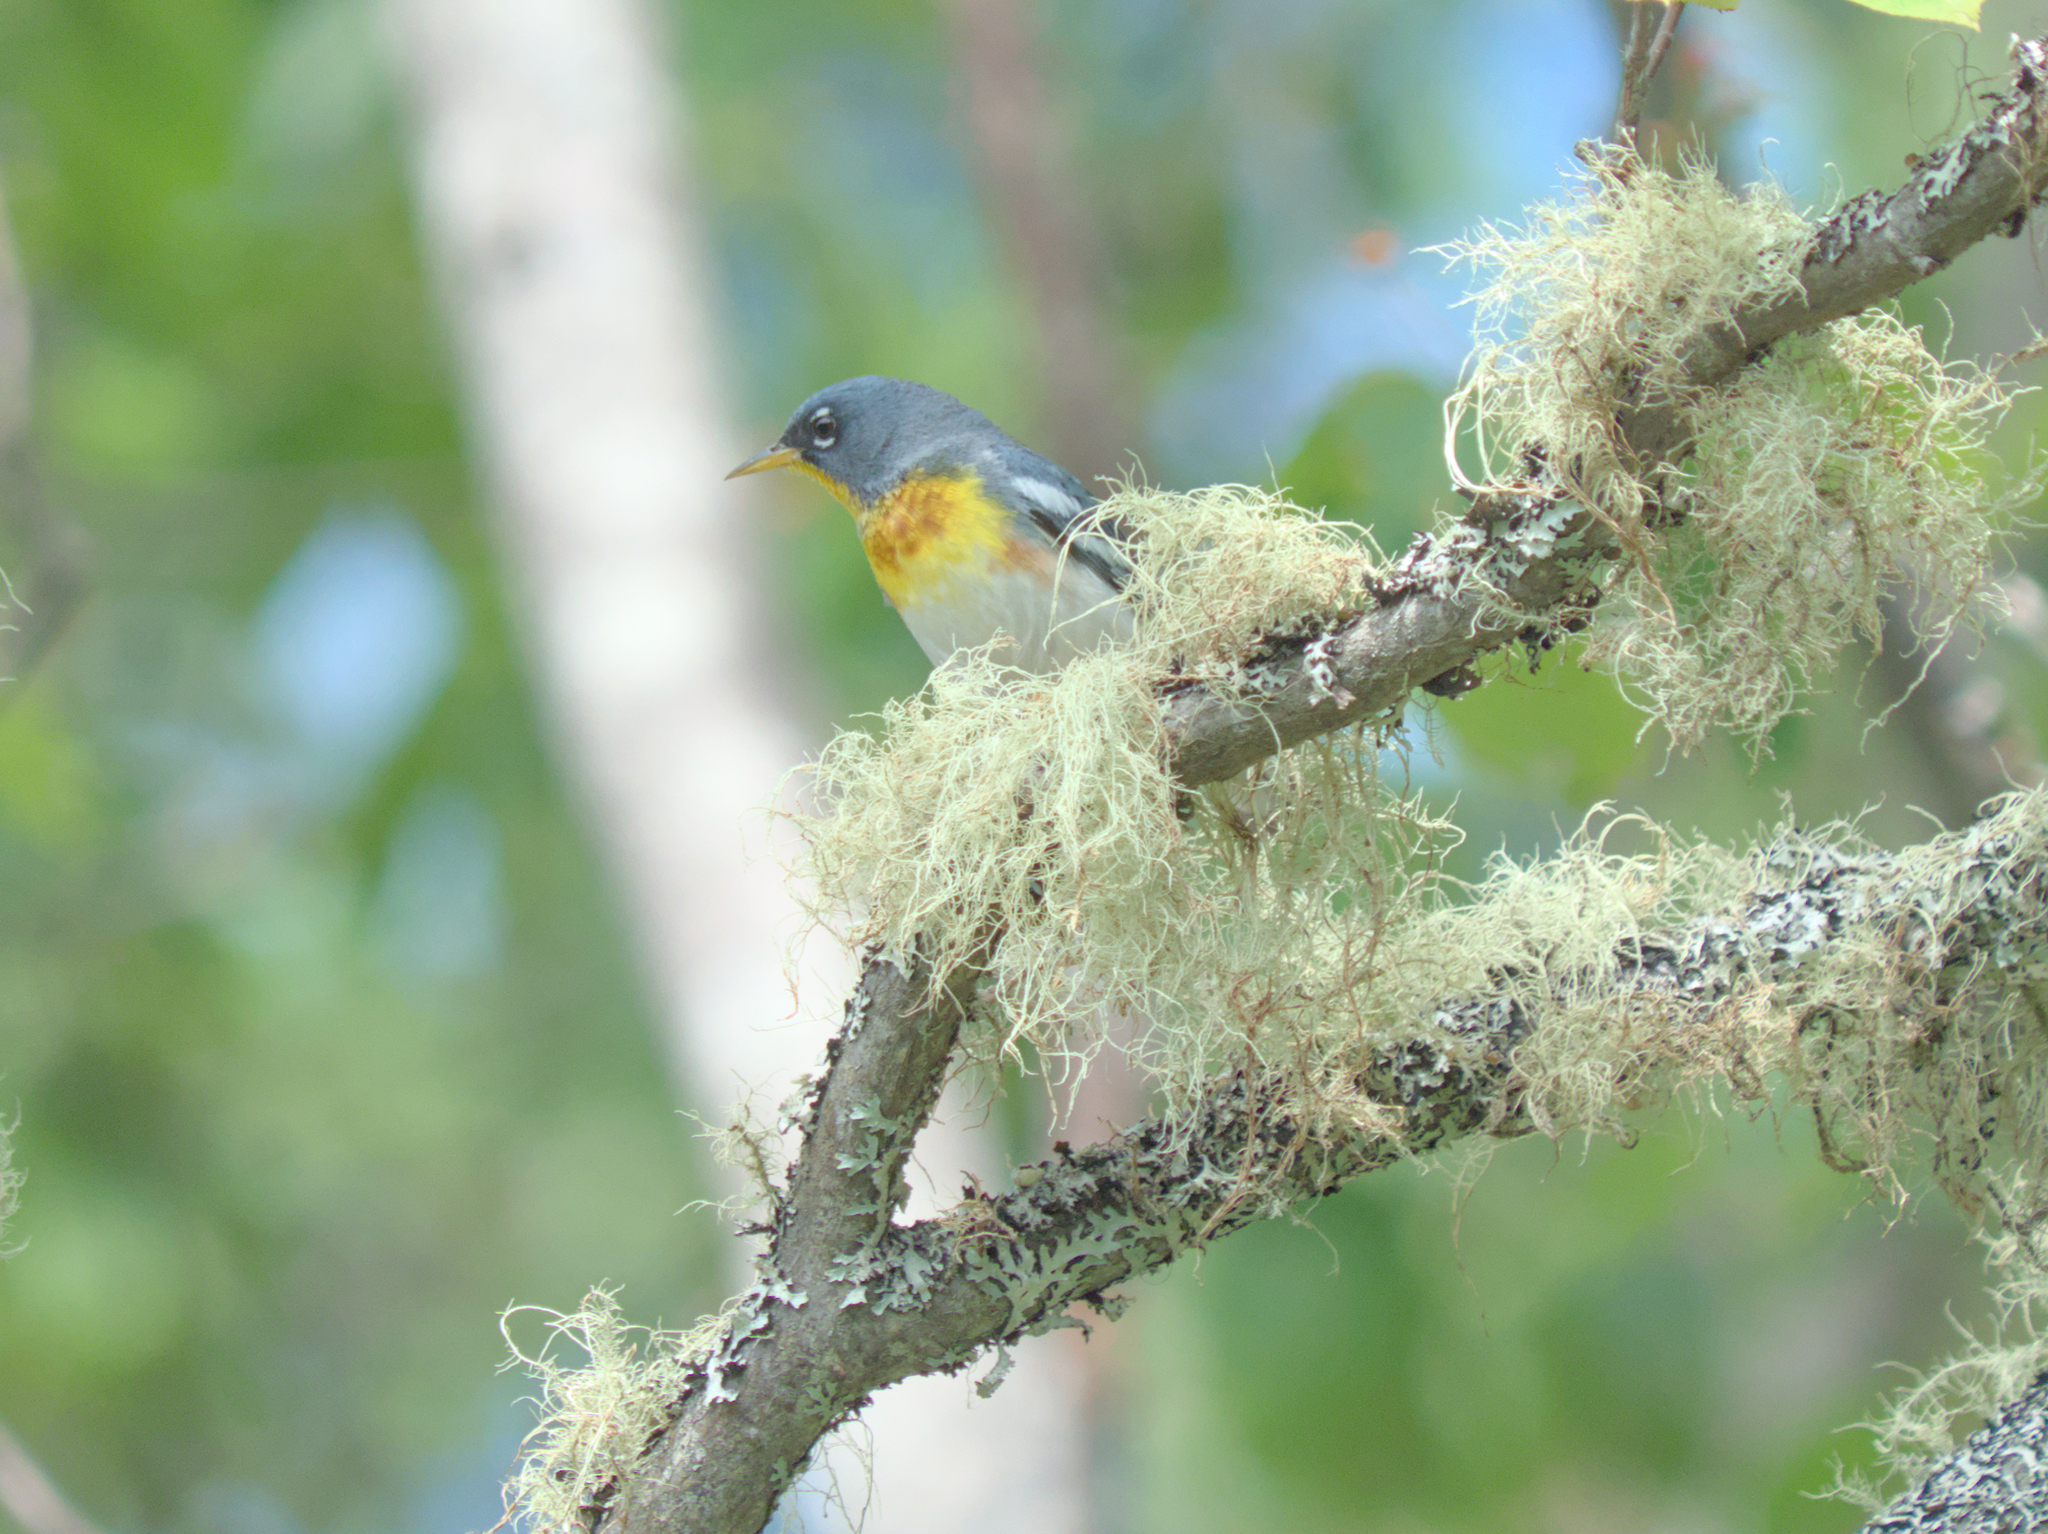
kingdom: Animalia
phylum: Chordata
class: Aves
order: Passeriformes
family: Parulidae
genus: Setophaga
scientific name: Setophaga americana
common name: Northern parula
